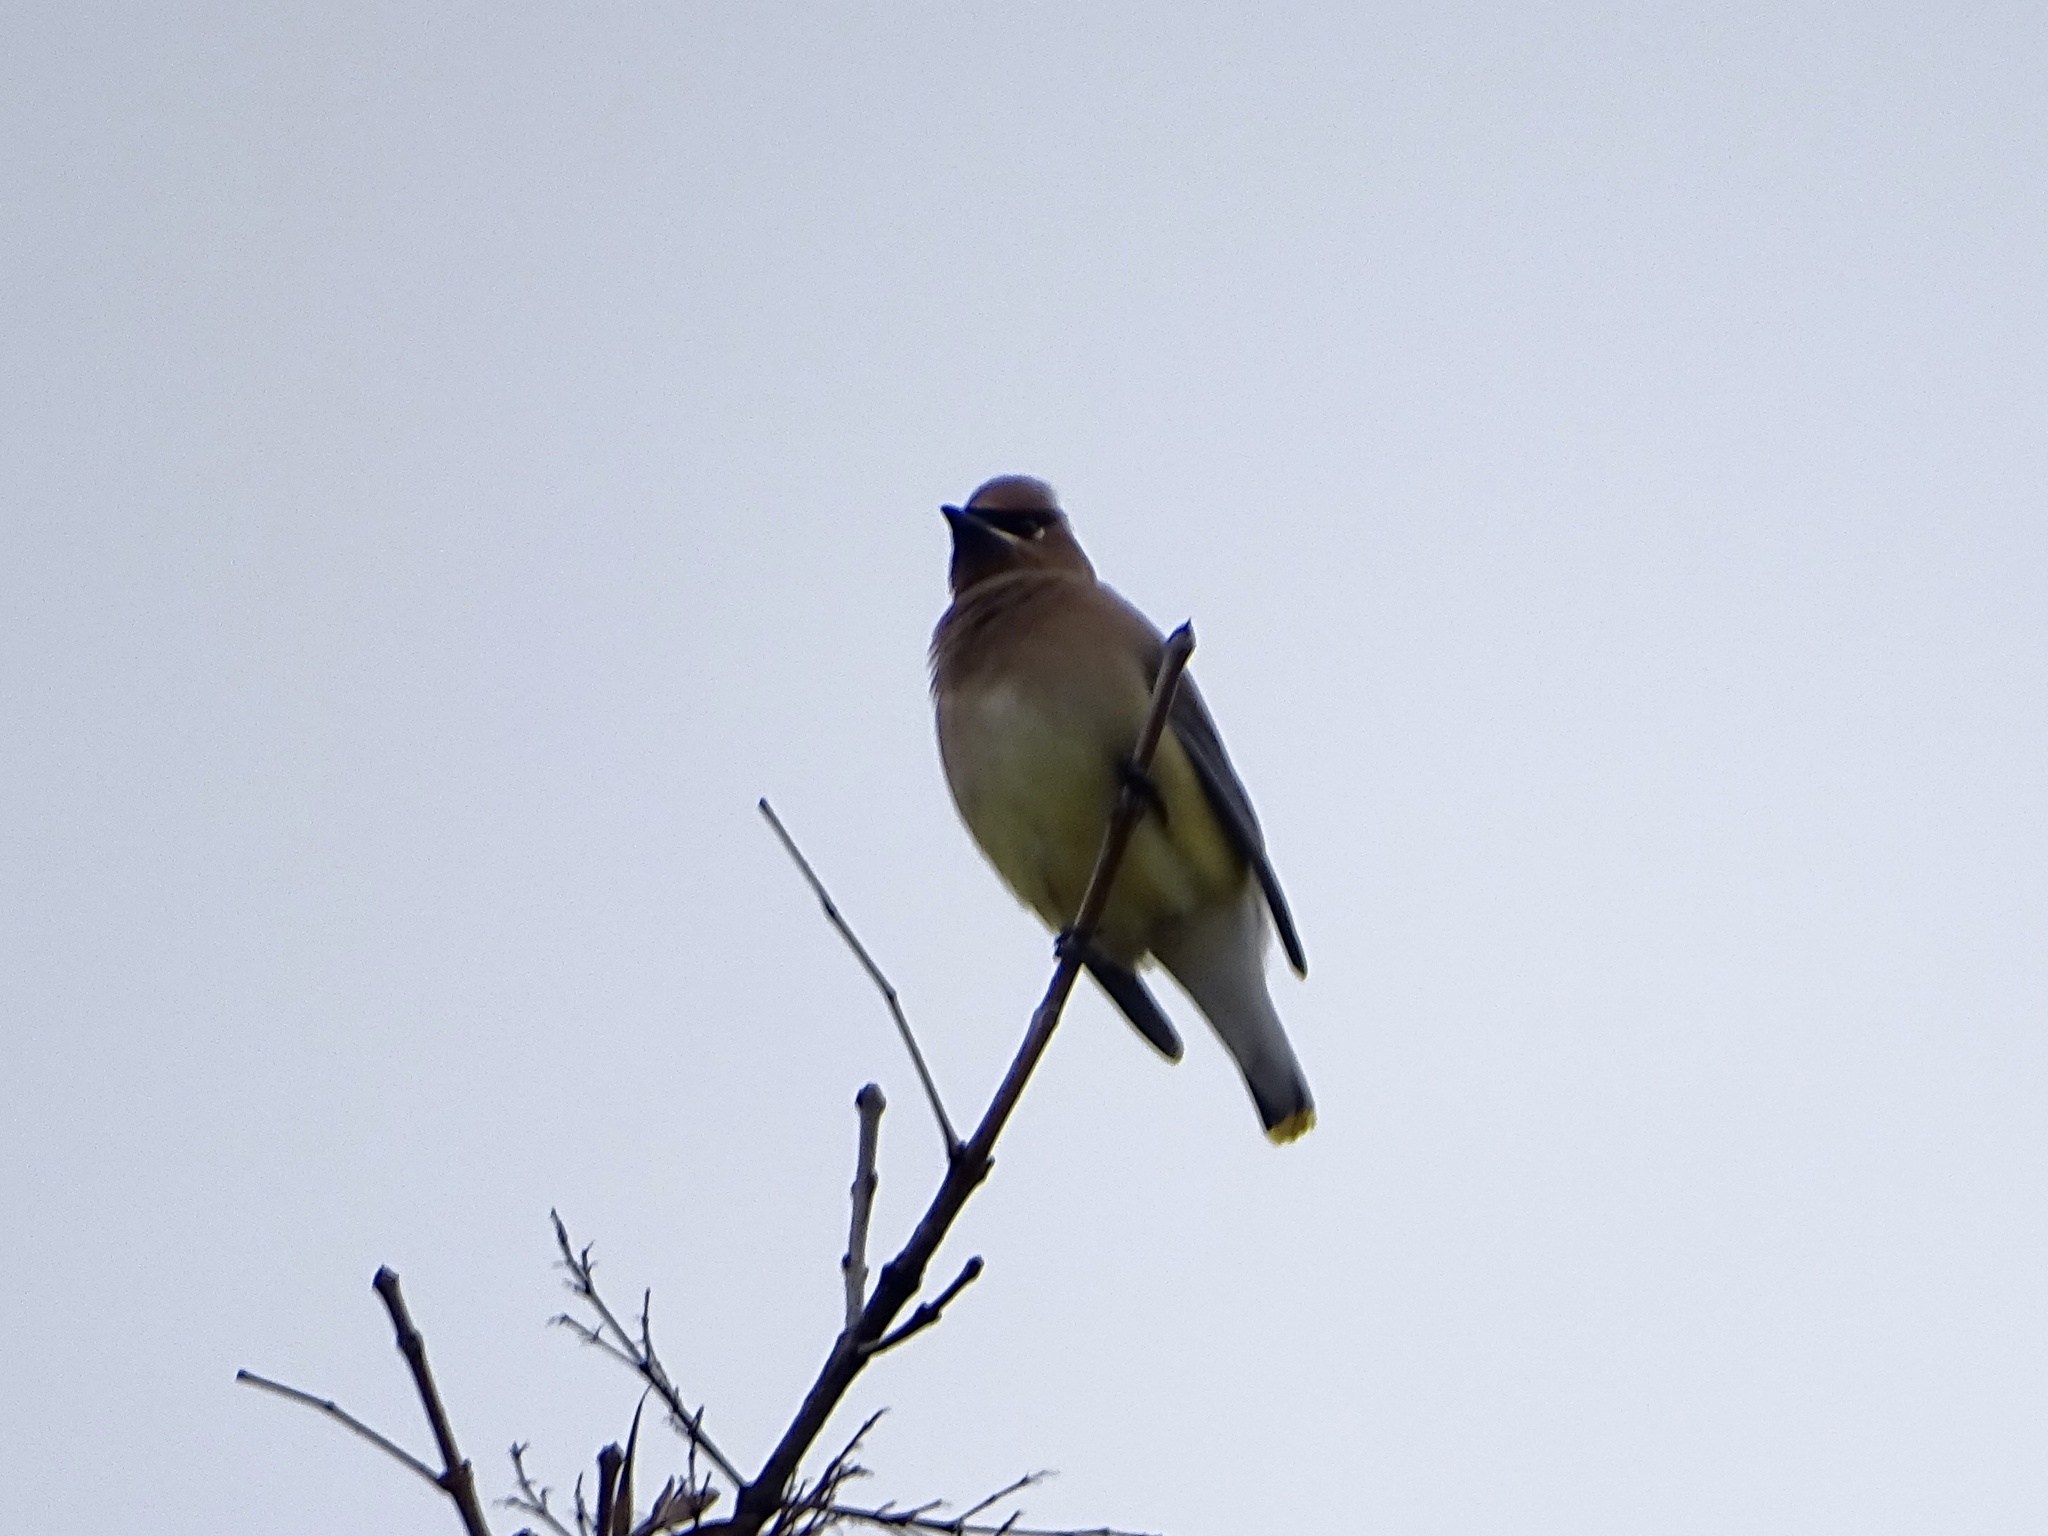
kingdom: Animalia
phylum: Chordata
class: Aves
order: Passeriformes
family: Bombycillidae
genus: Bombycilla
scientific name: Bombycilla cedrorum
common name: Cedar waxwing
